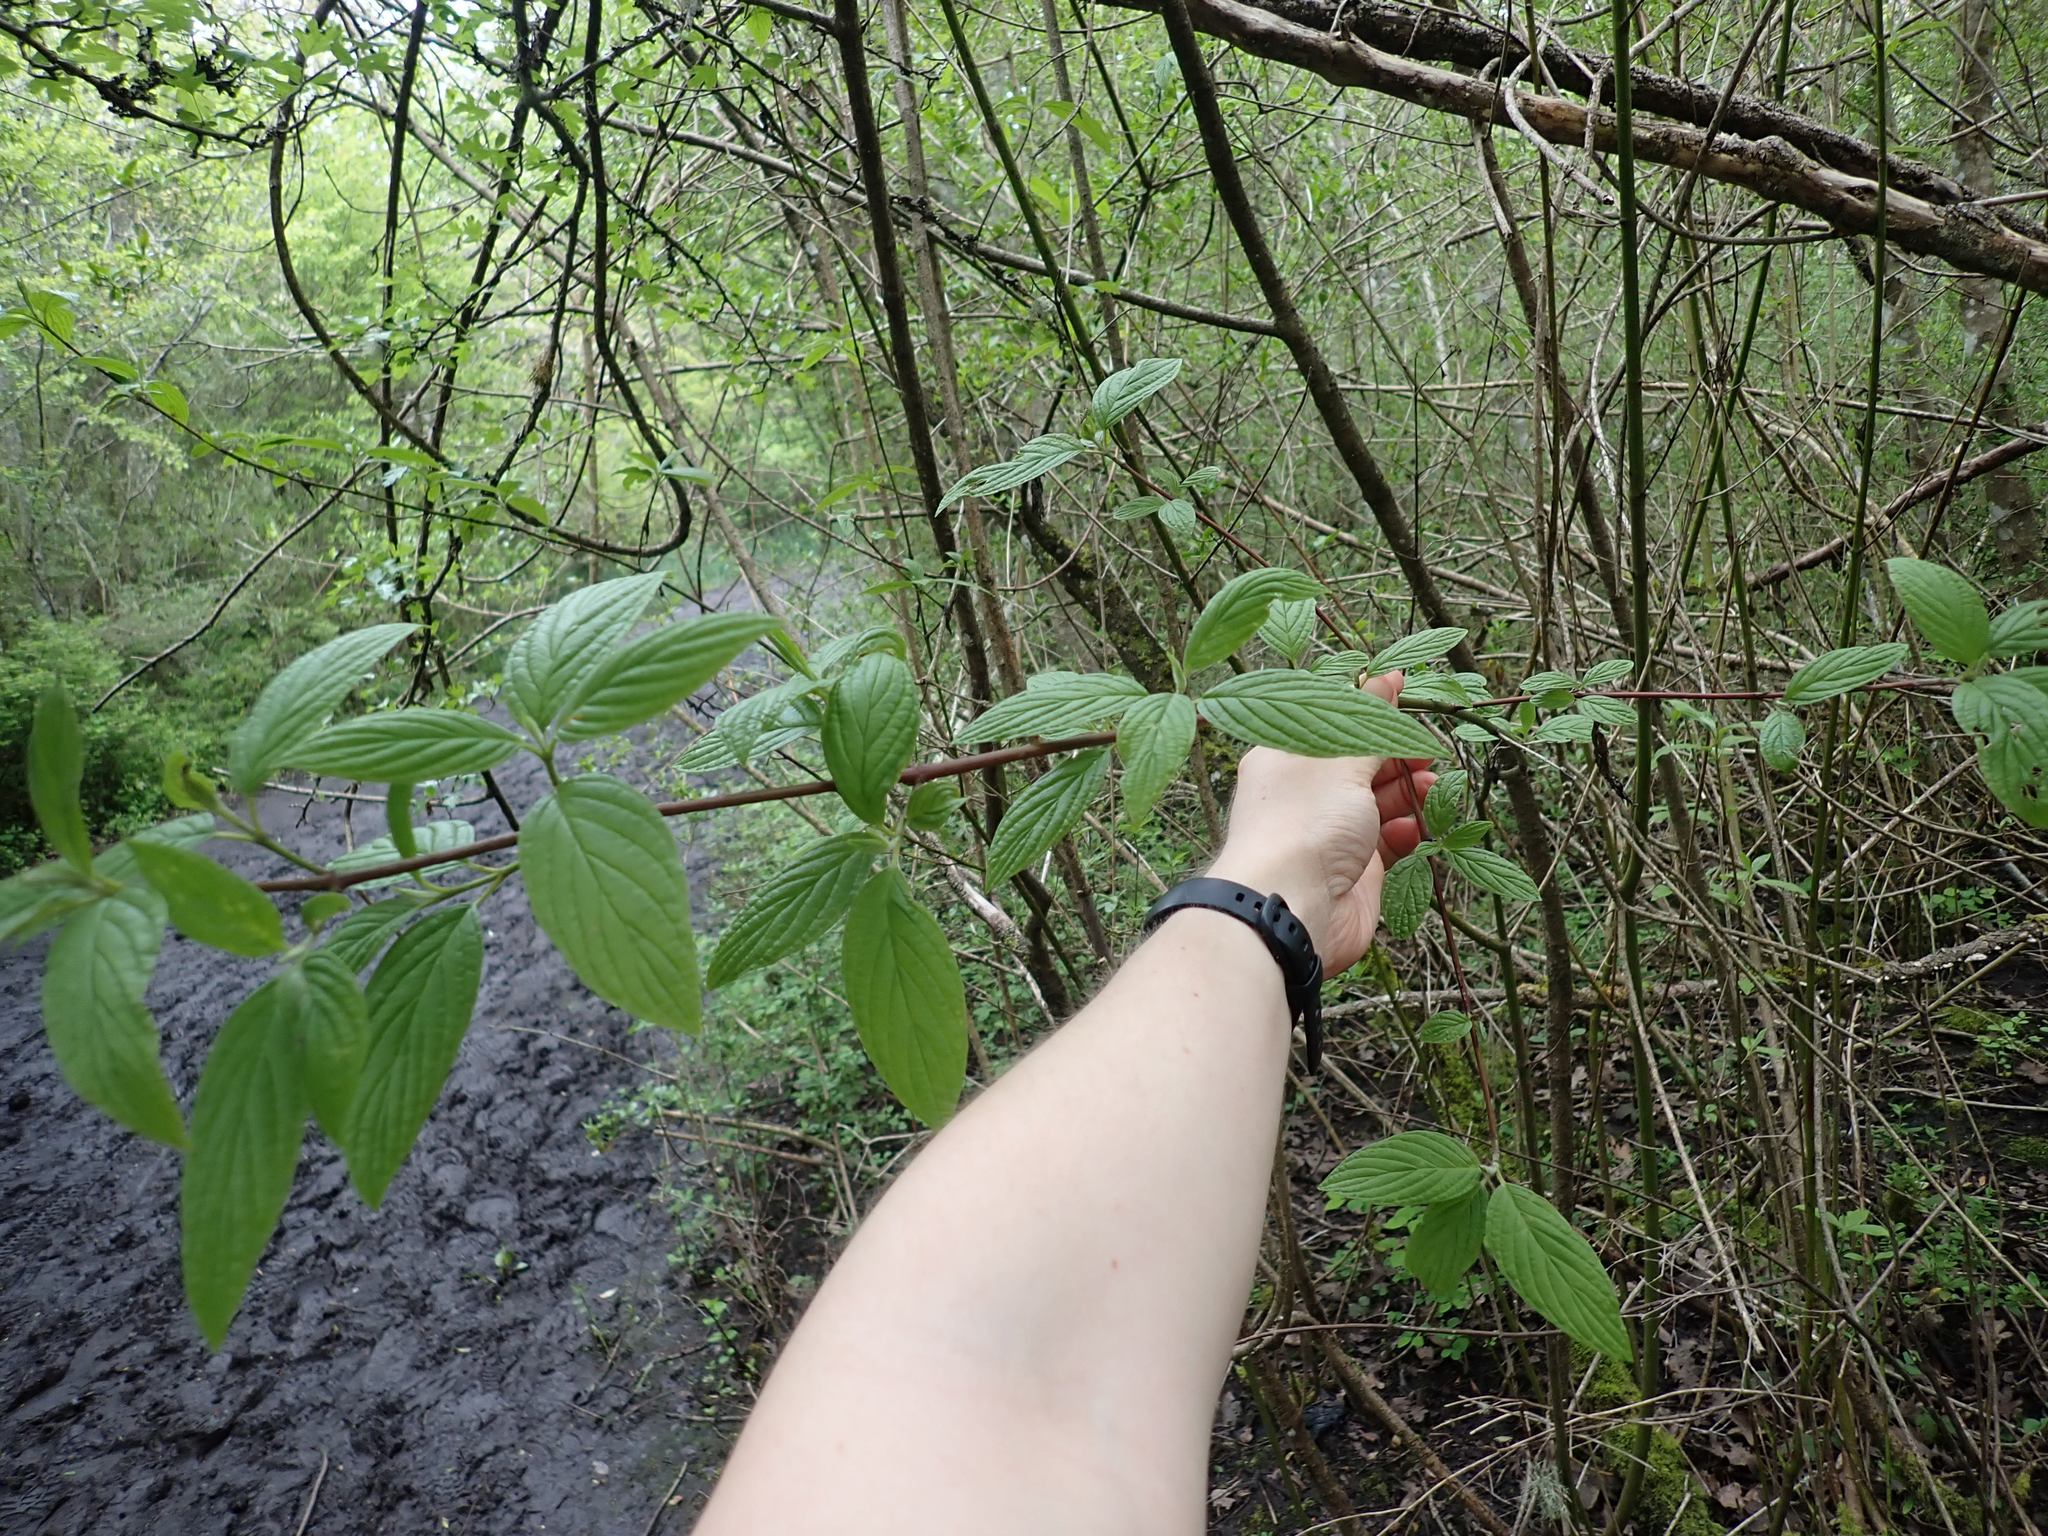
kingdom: Plantae
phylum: Tracheophyta
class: Magnoliopsida
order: Cornales
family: Cornaceae
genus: Cornus
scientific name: Cornus sericea
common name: Red-osier dogwood
